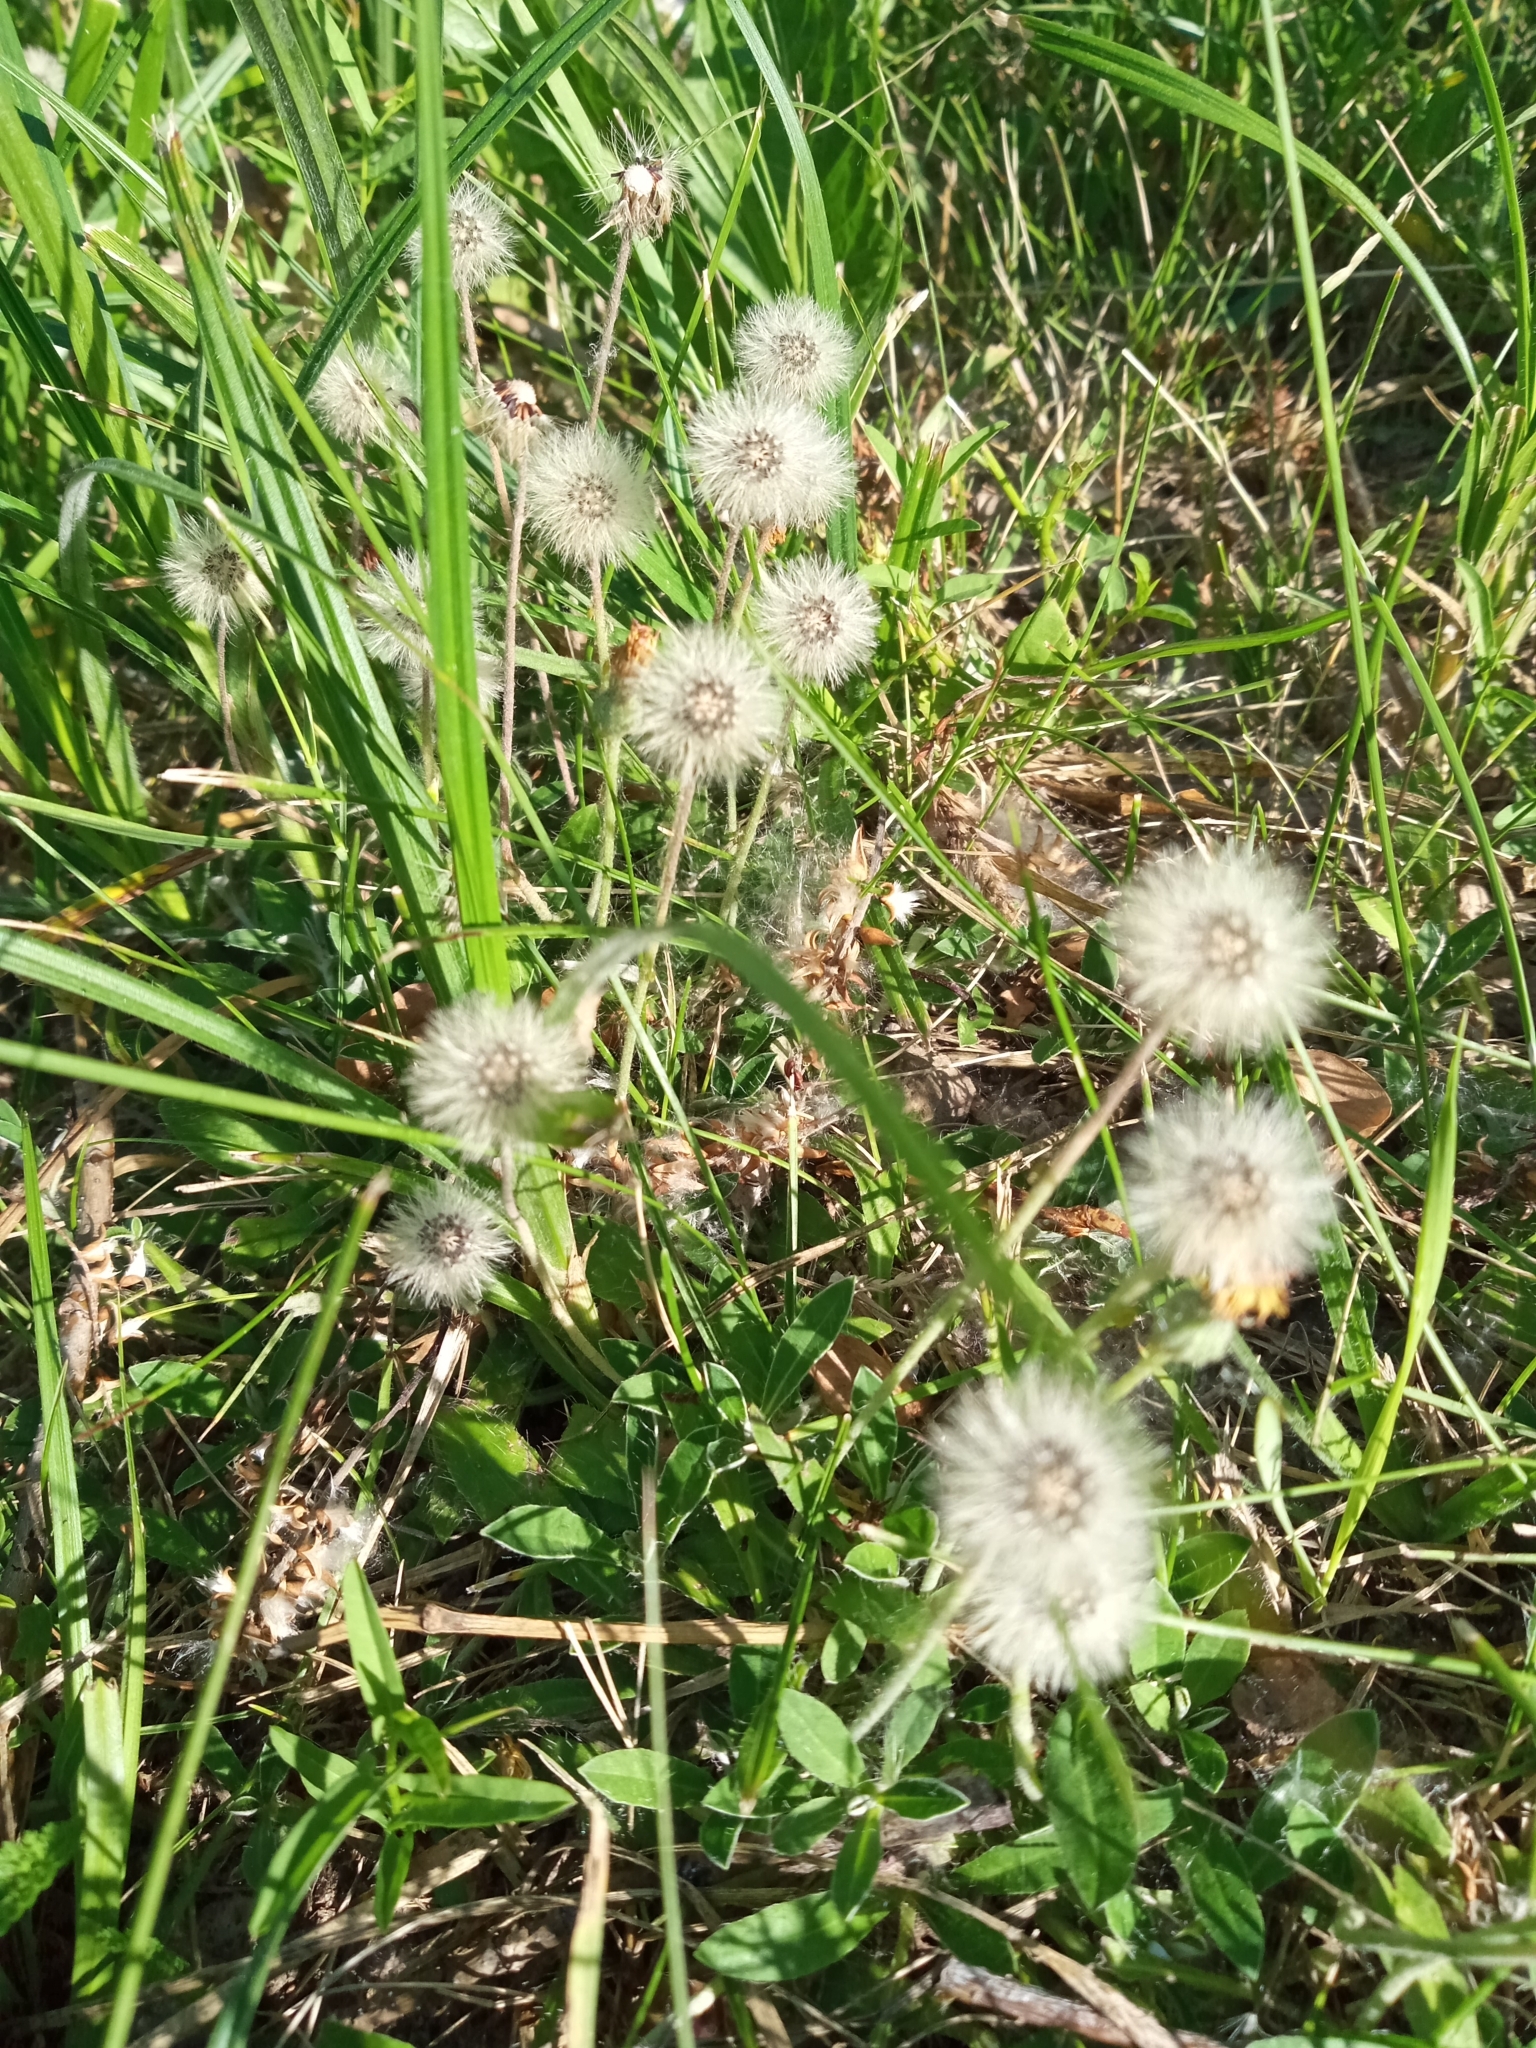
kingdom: Plantae
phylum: Tracheophyta
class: Magnoliopsida
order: Asterales
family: Asteraceae
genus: Pilosella
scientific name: Pilosella officinarum
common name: Mouse-ear hawkweed
